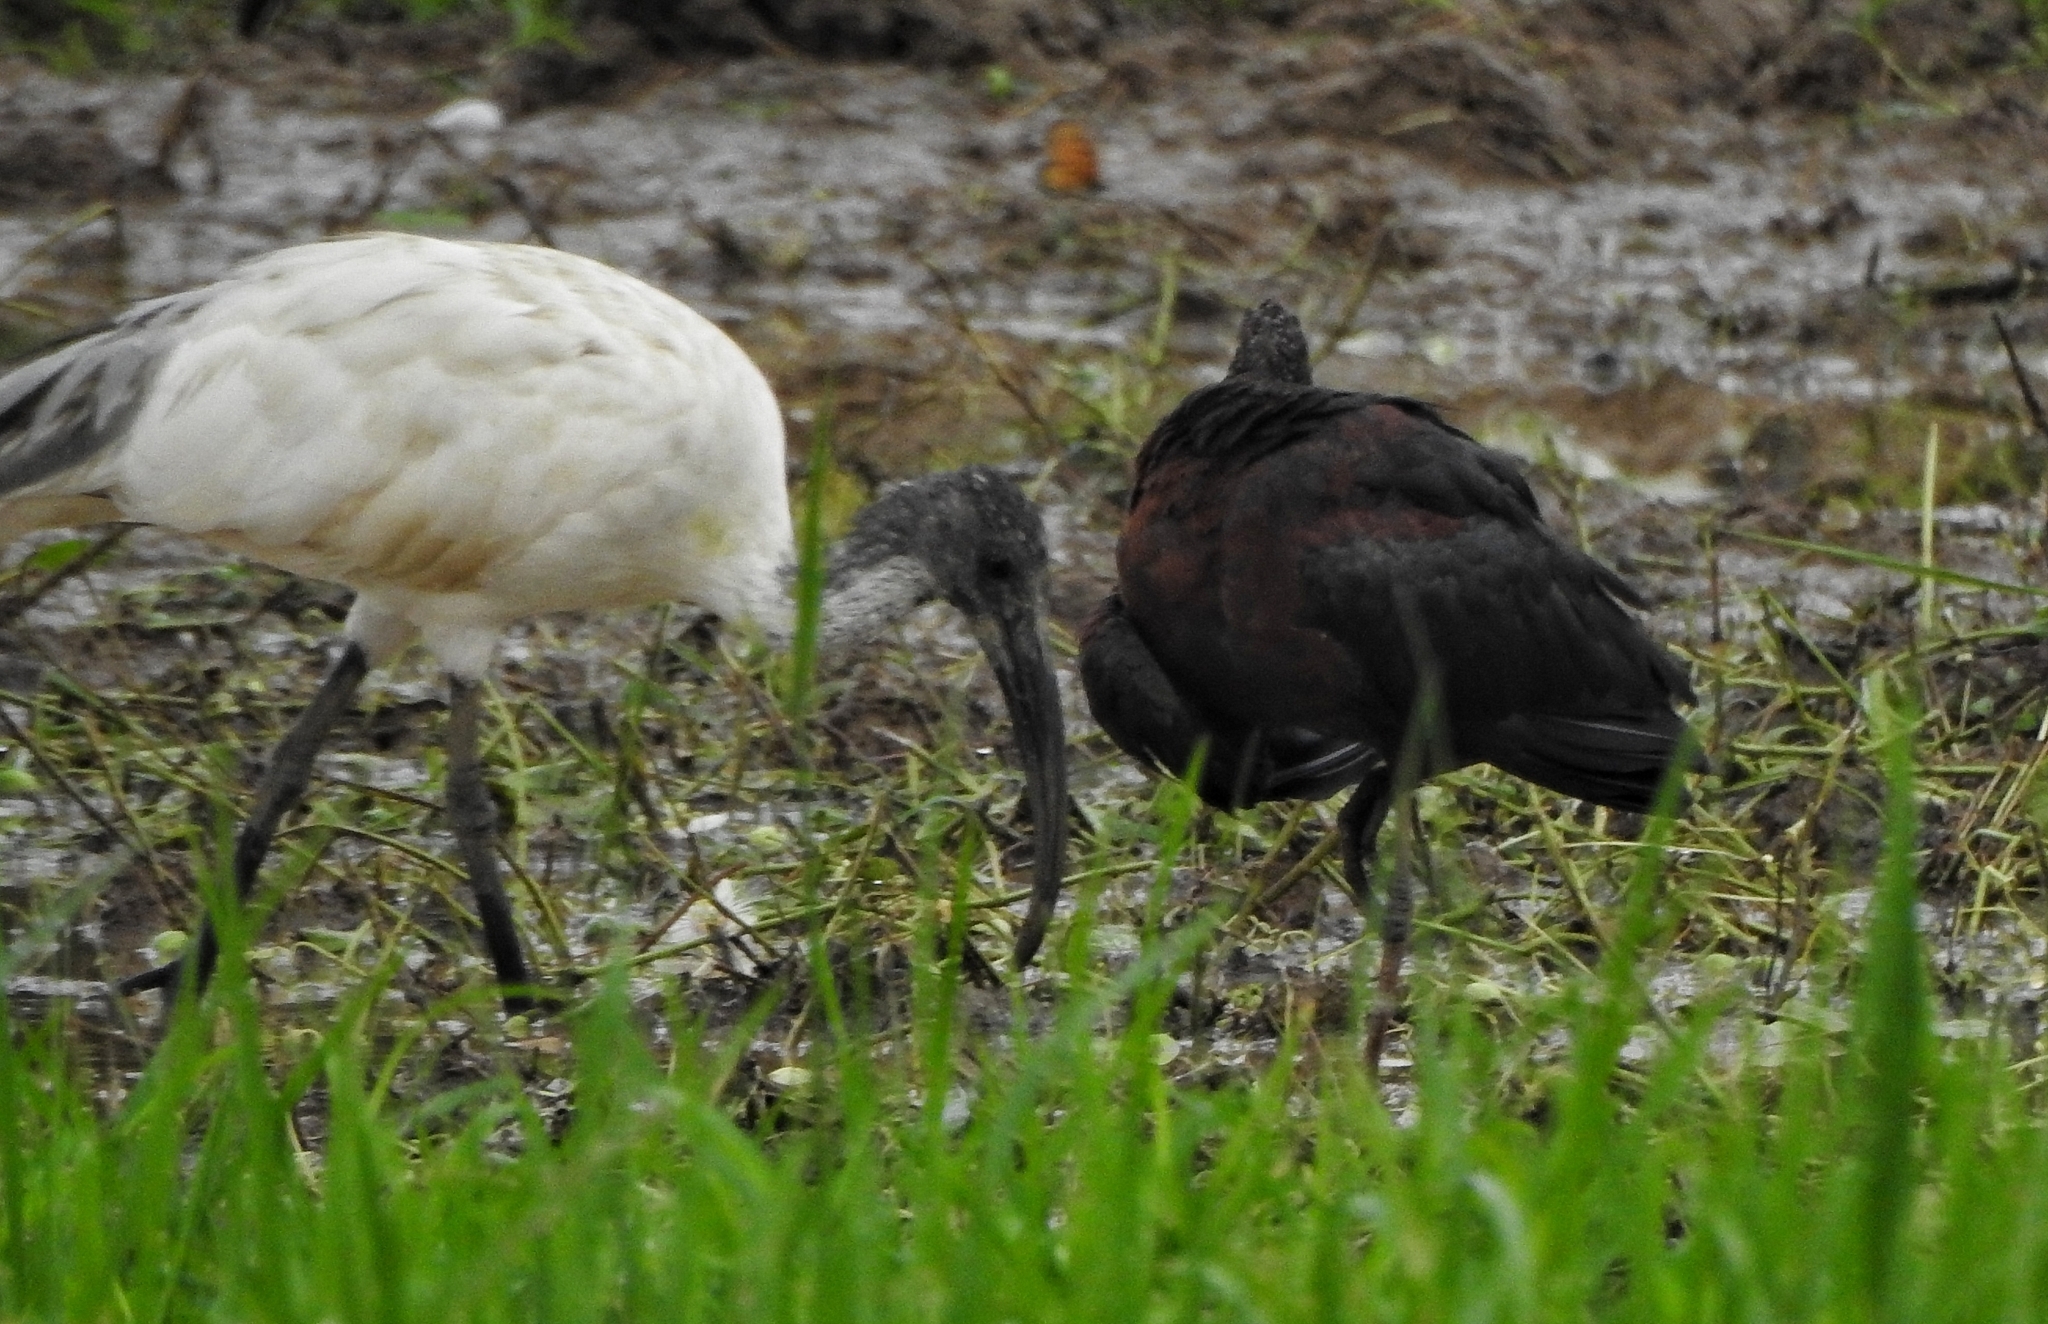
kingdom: Animalia
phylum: Chordata
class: Aves
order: Pelecaniformes
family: Threskiornithidae
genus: Plegadis
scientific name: Plegadis falcinellus
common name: Glossy ibis
